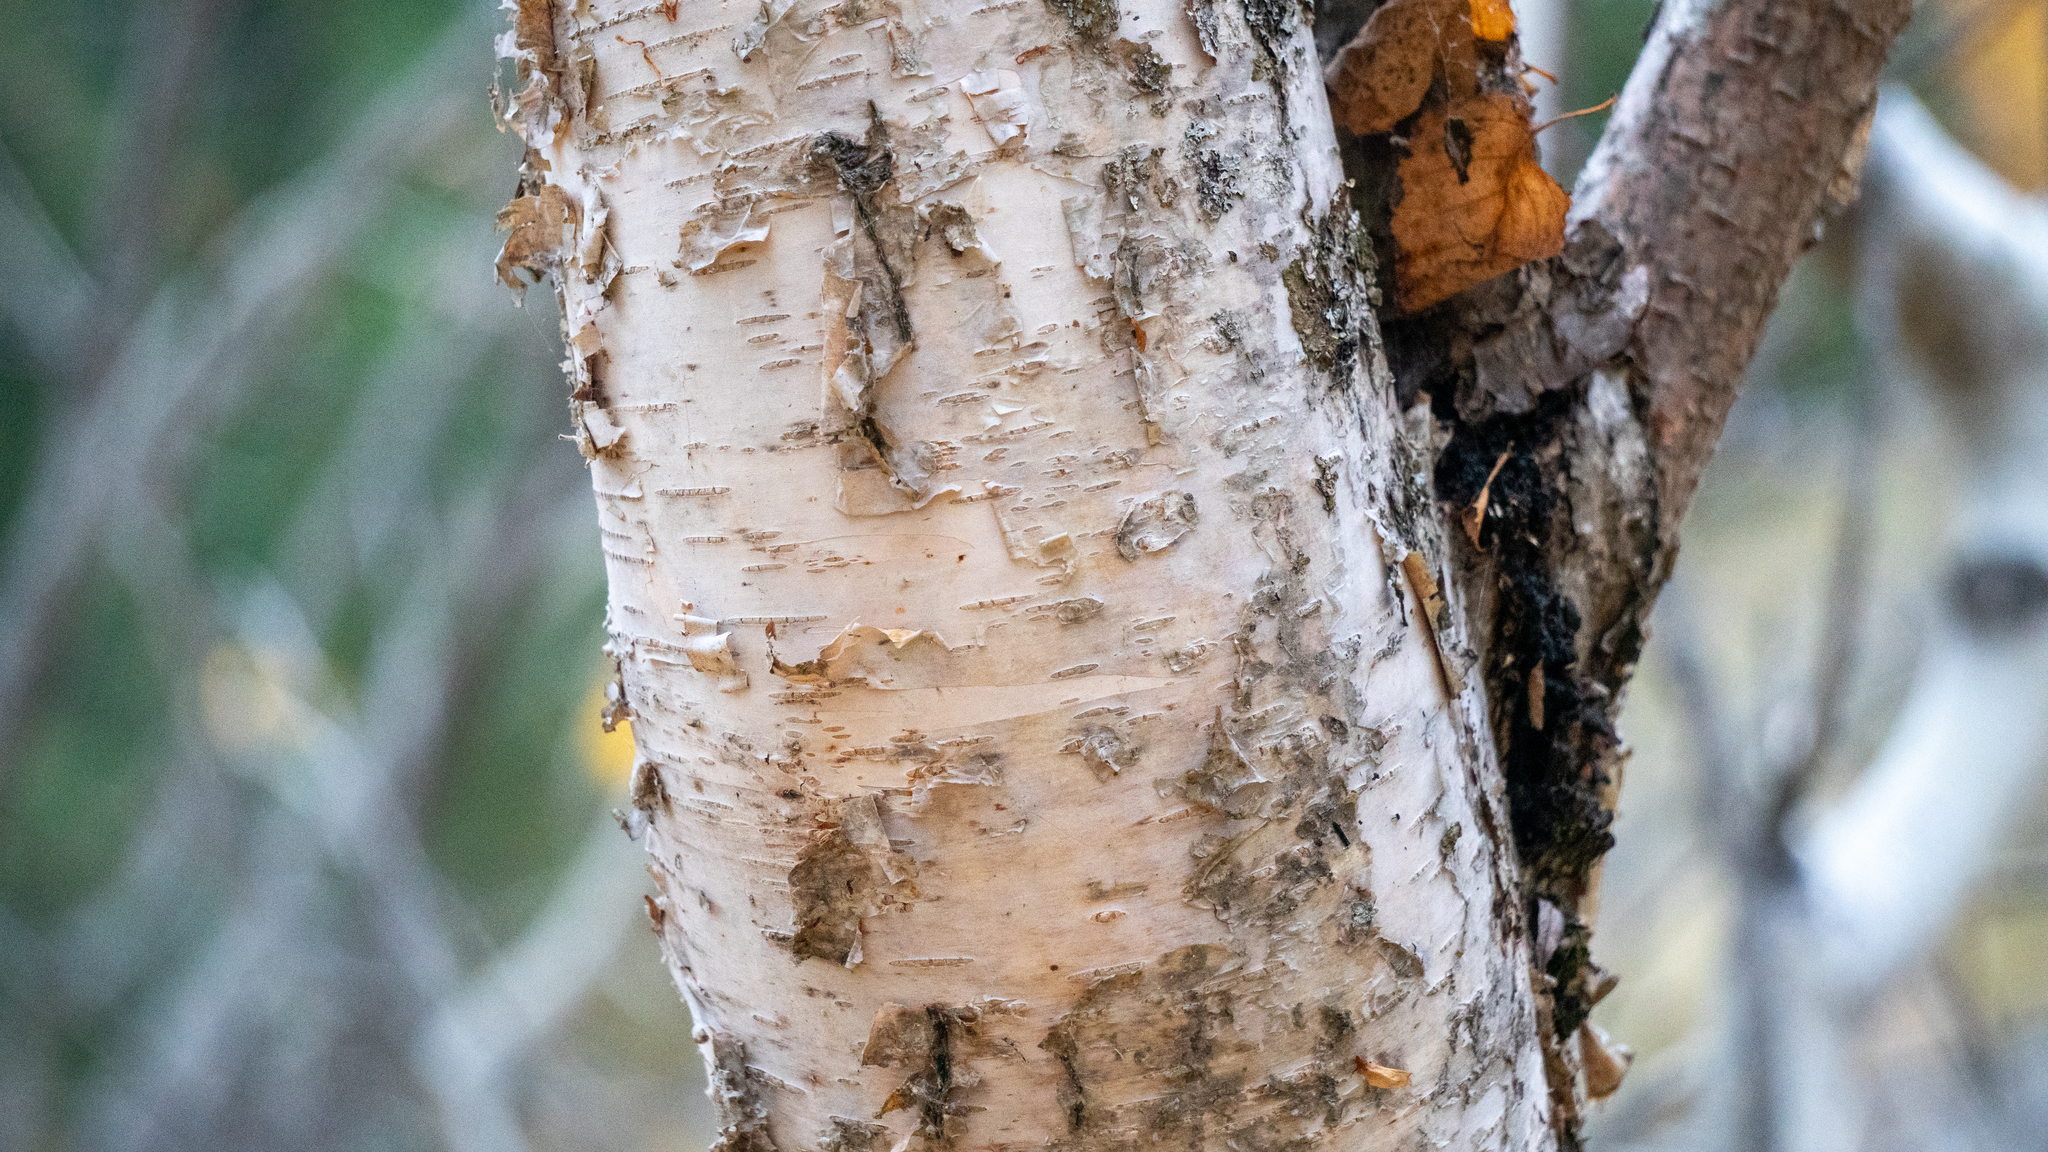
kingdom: Plantae
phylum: Tracheophyta
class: Magnoliopsida
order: Fagales
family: Betulaceae
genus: Betula
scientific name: Betula papyrifera
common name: Paper birch
